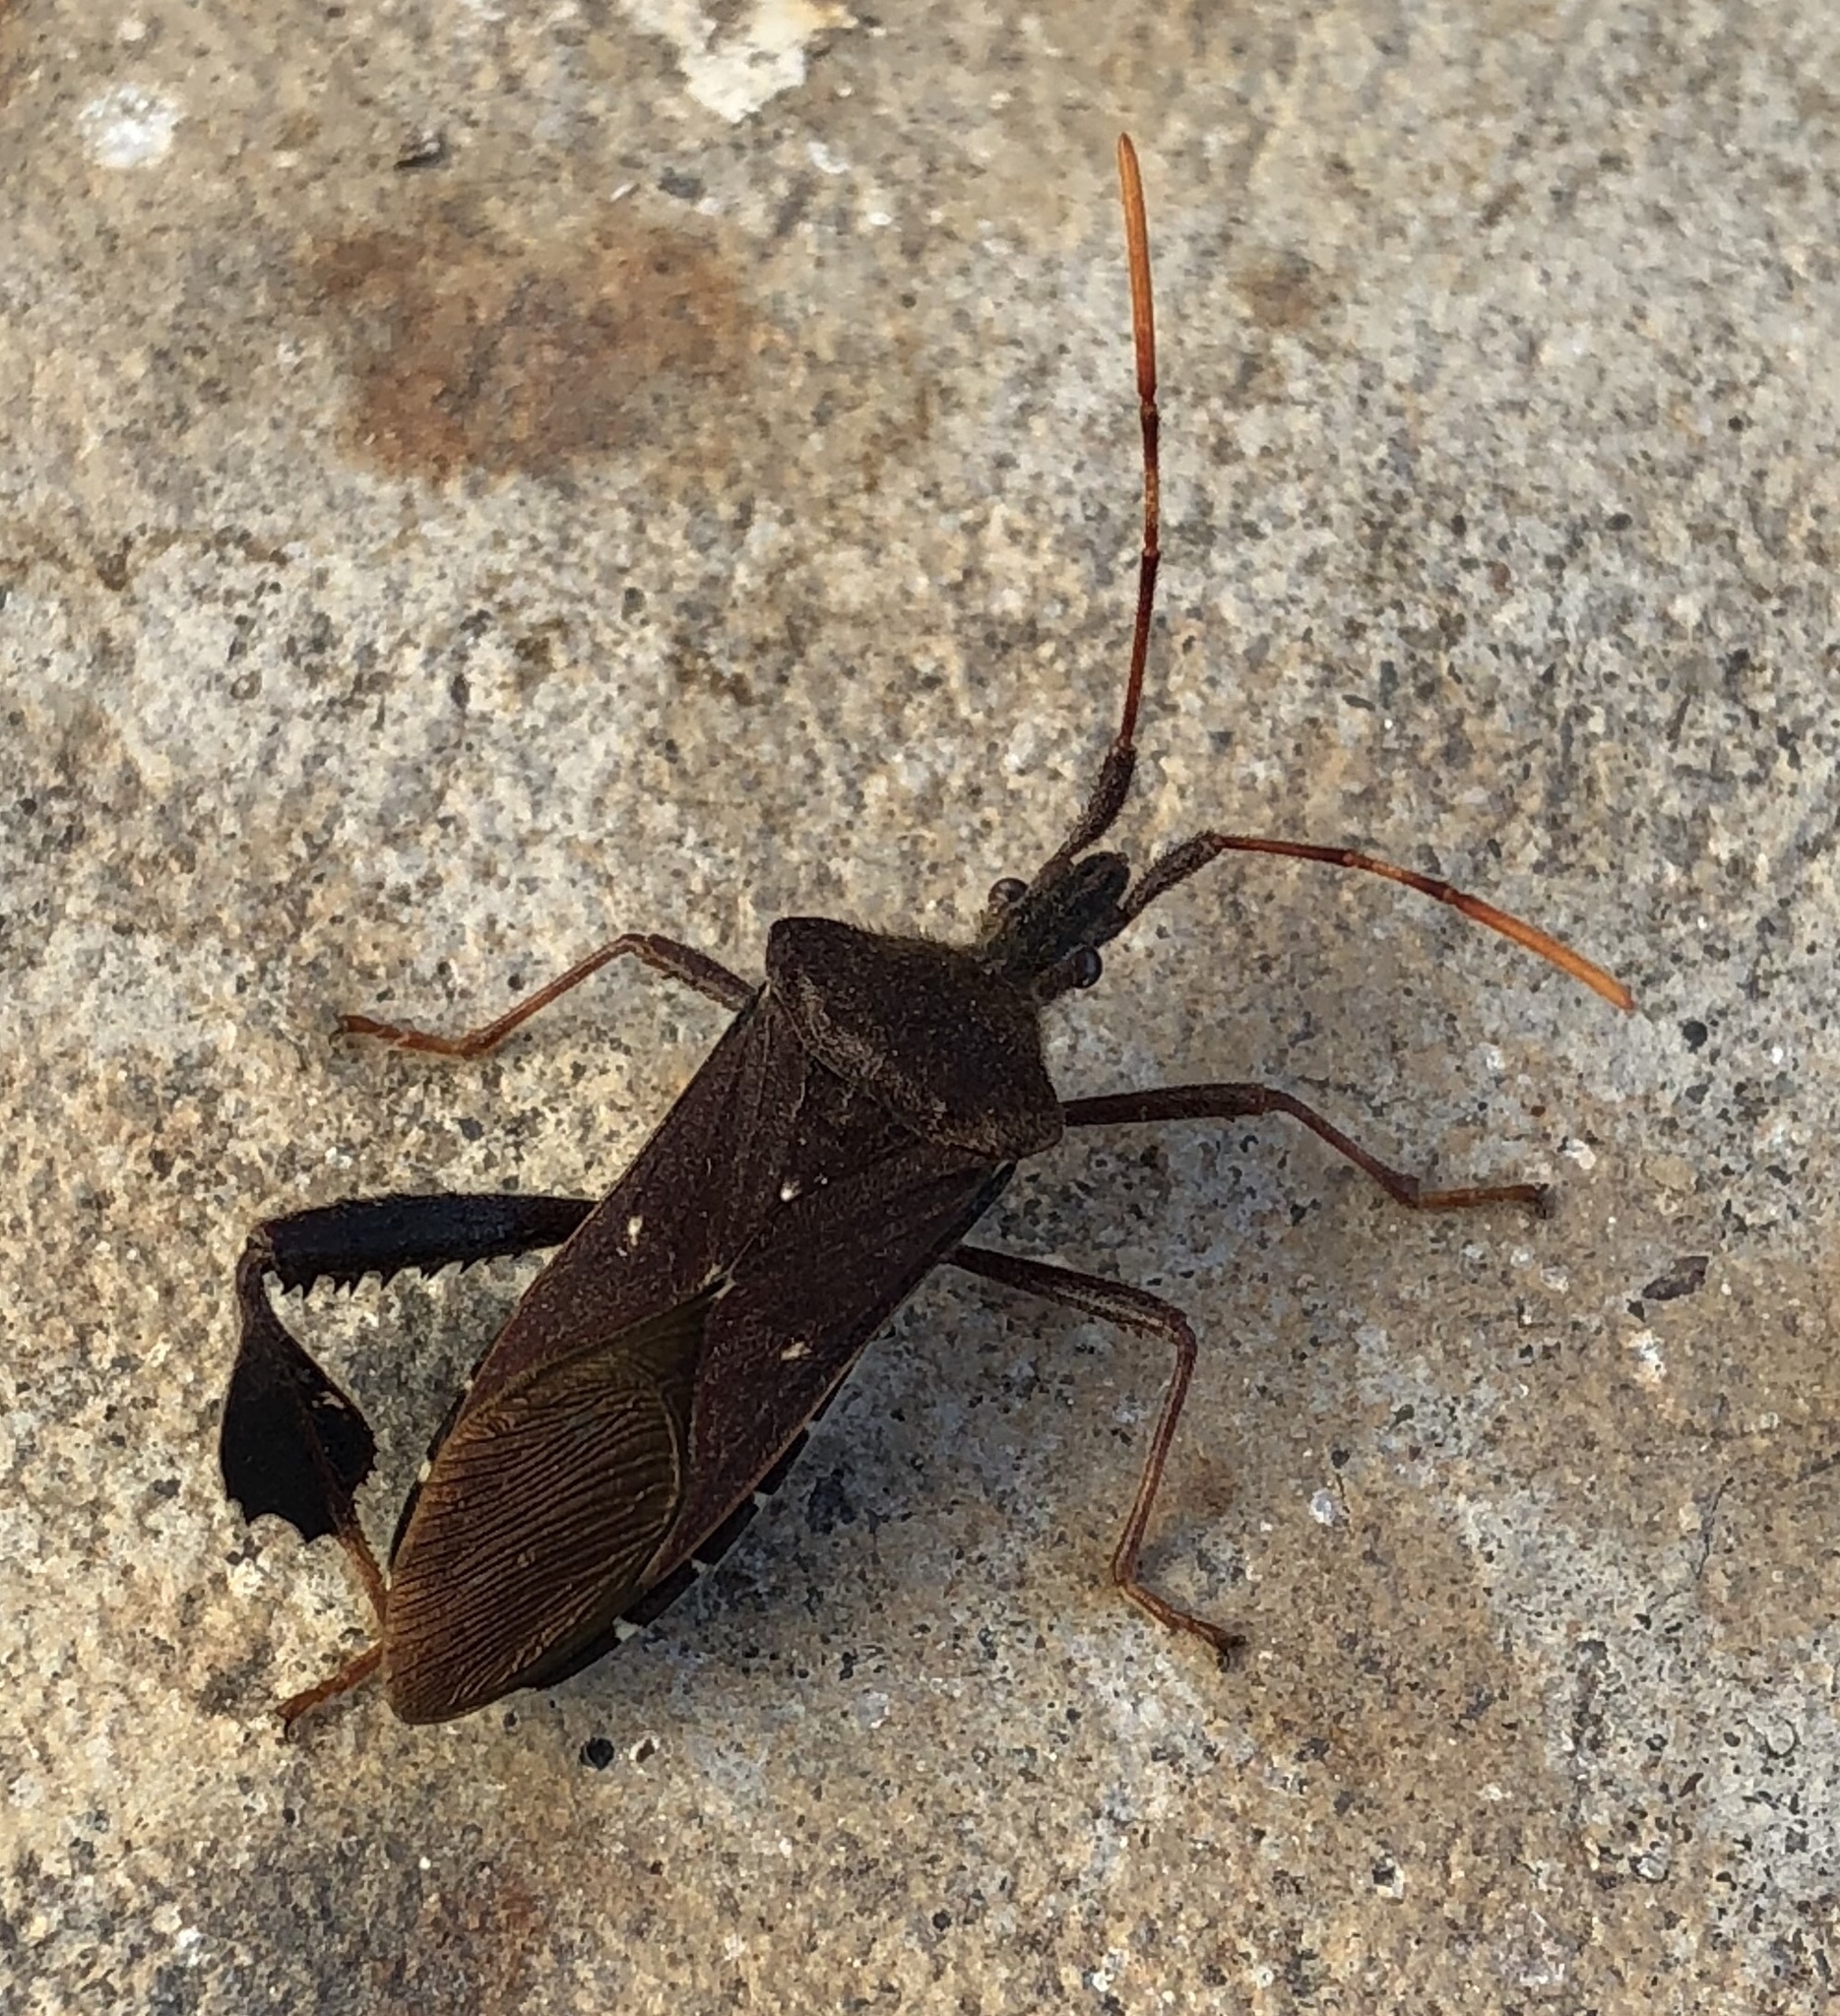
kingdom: Animalia
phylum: Arthropoda
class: Insecta
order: Hemiptera
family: Coreidae
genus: Leptoglossus
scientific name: Leptoglossus oppositus
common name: Northern leaf-footed bug
